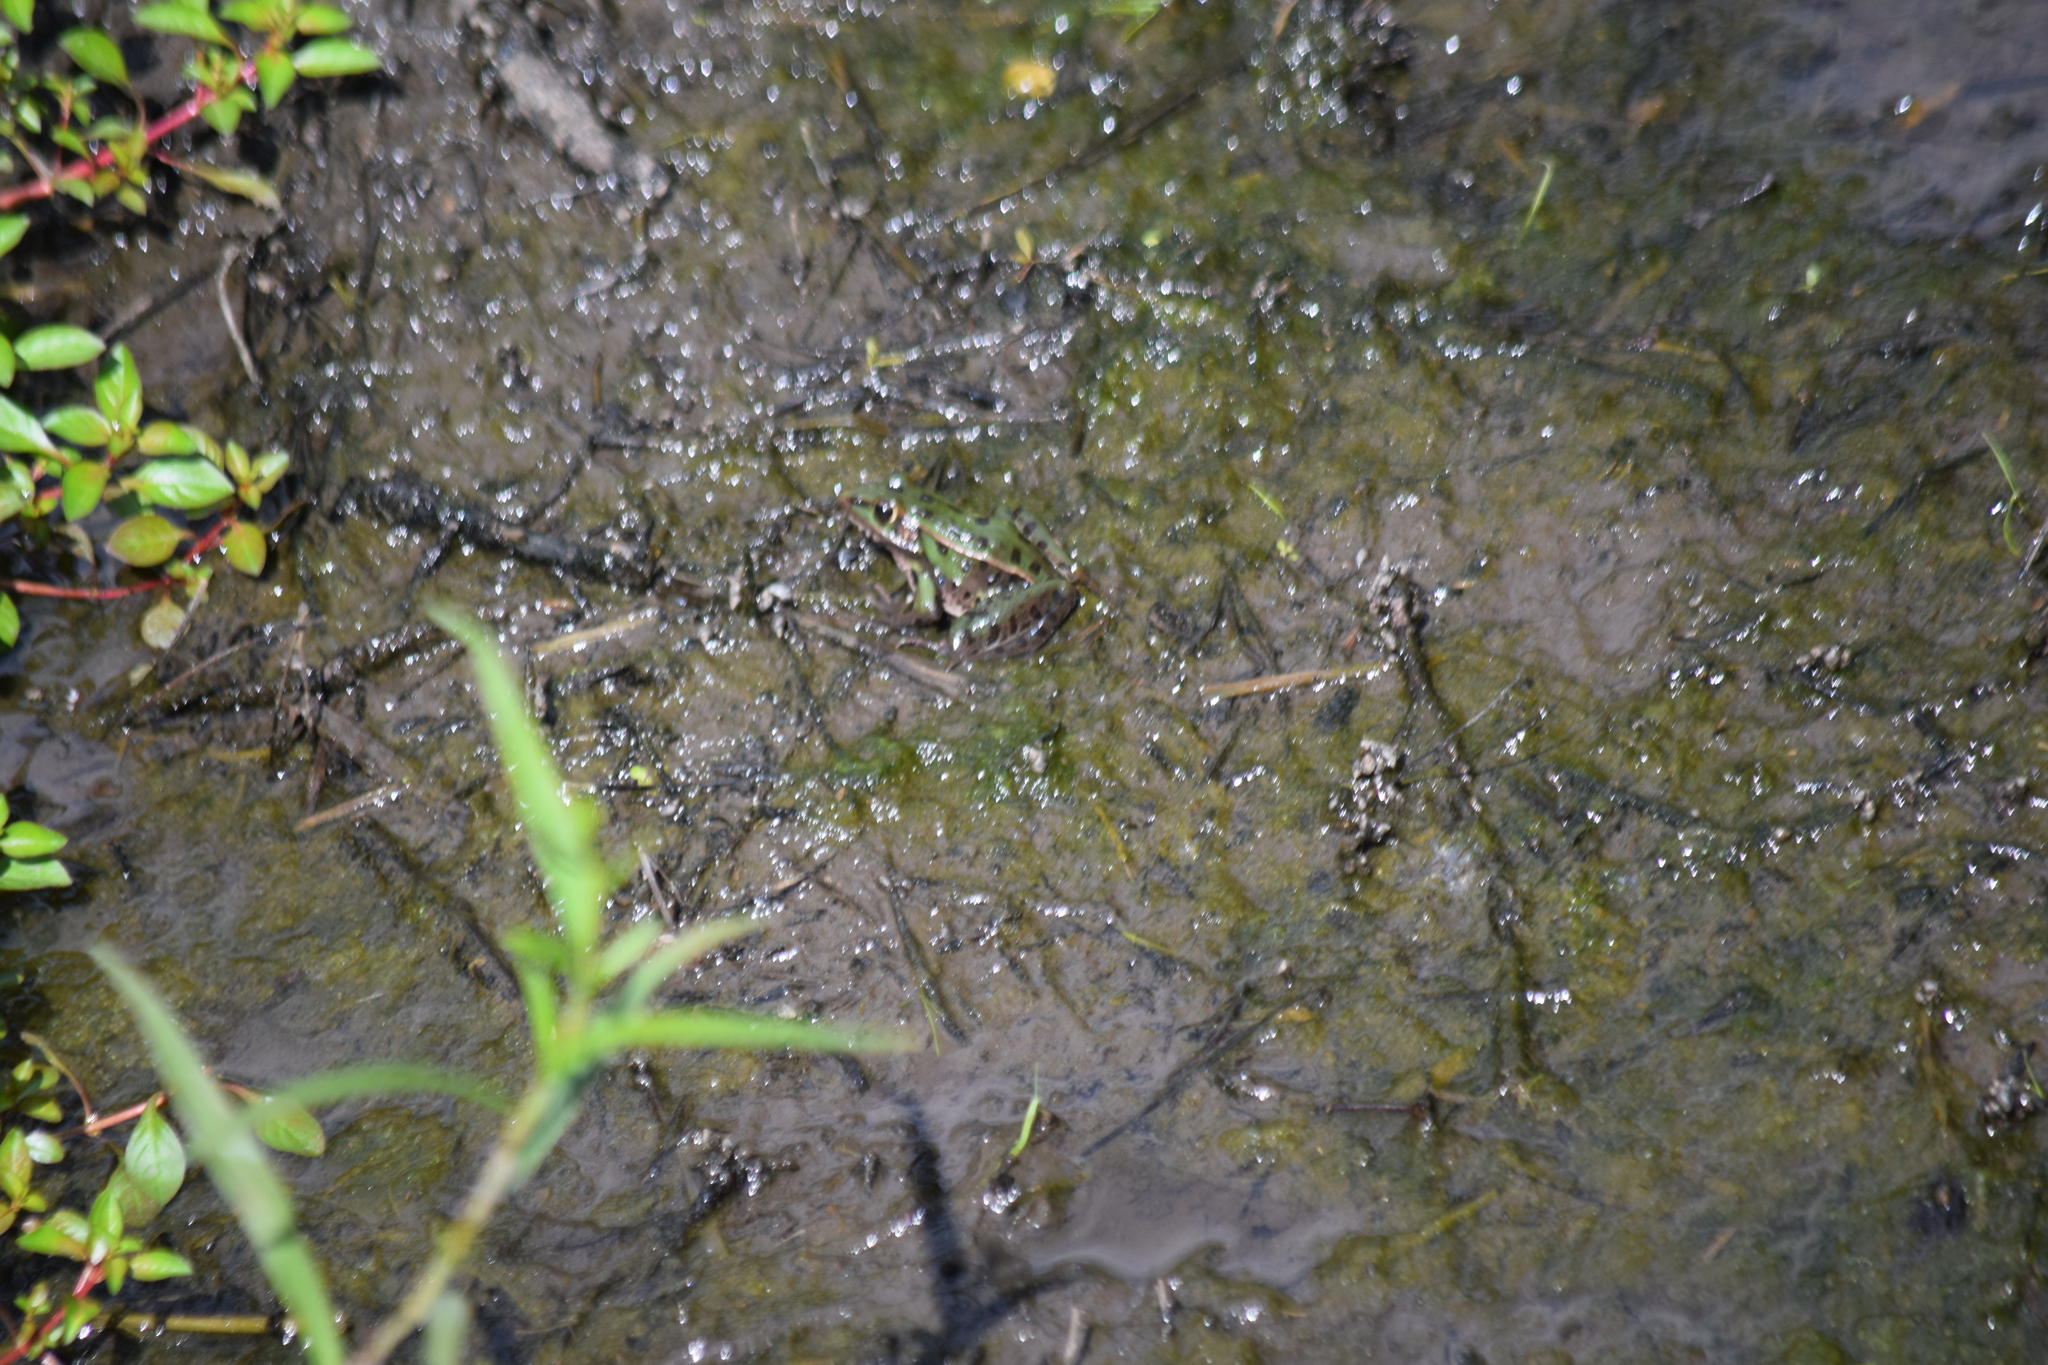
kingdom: Animalia
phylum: Chordata
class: Amphibia
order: Anura
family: Ranidae
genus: Lithobates
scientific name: Lithobates sphenocephalus
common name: Southern leopard frog
